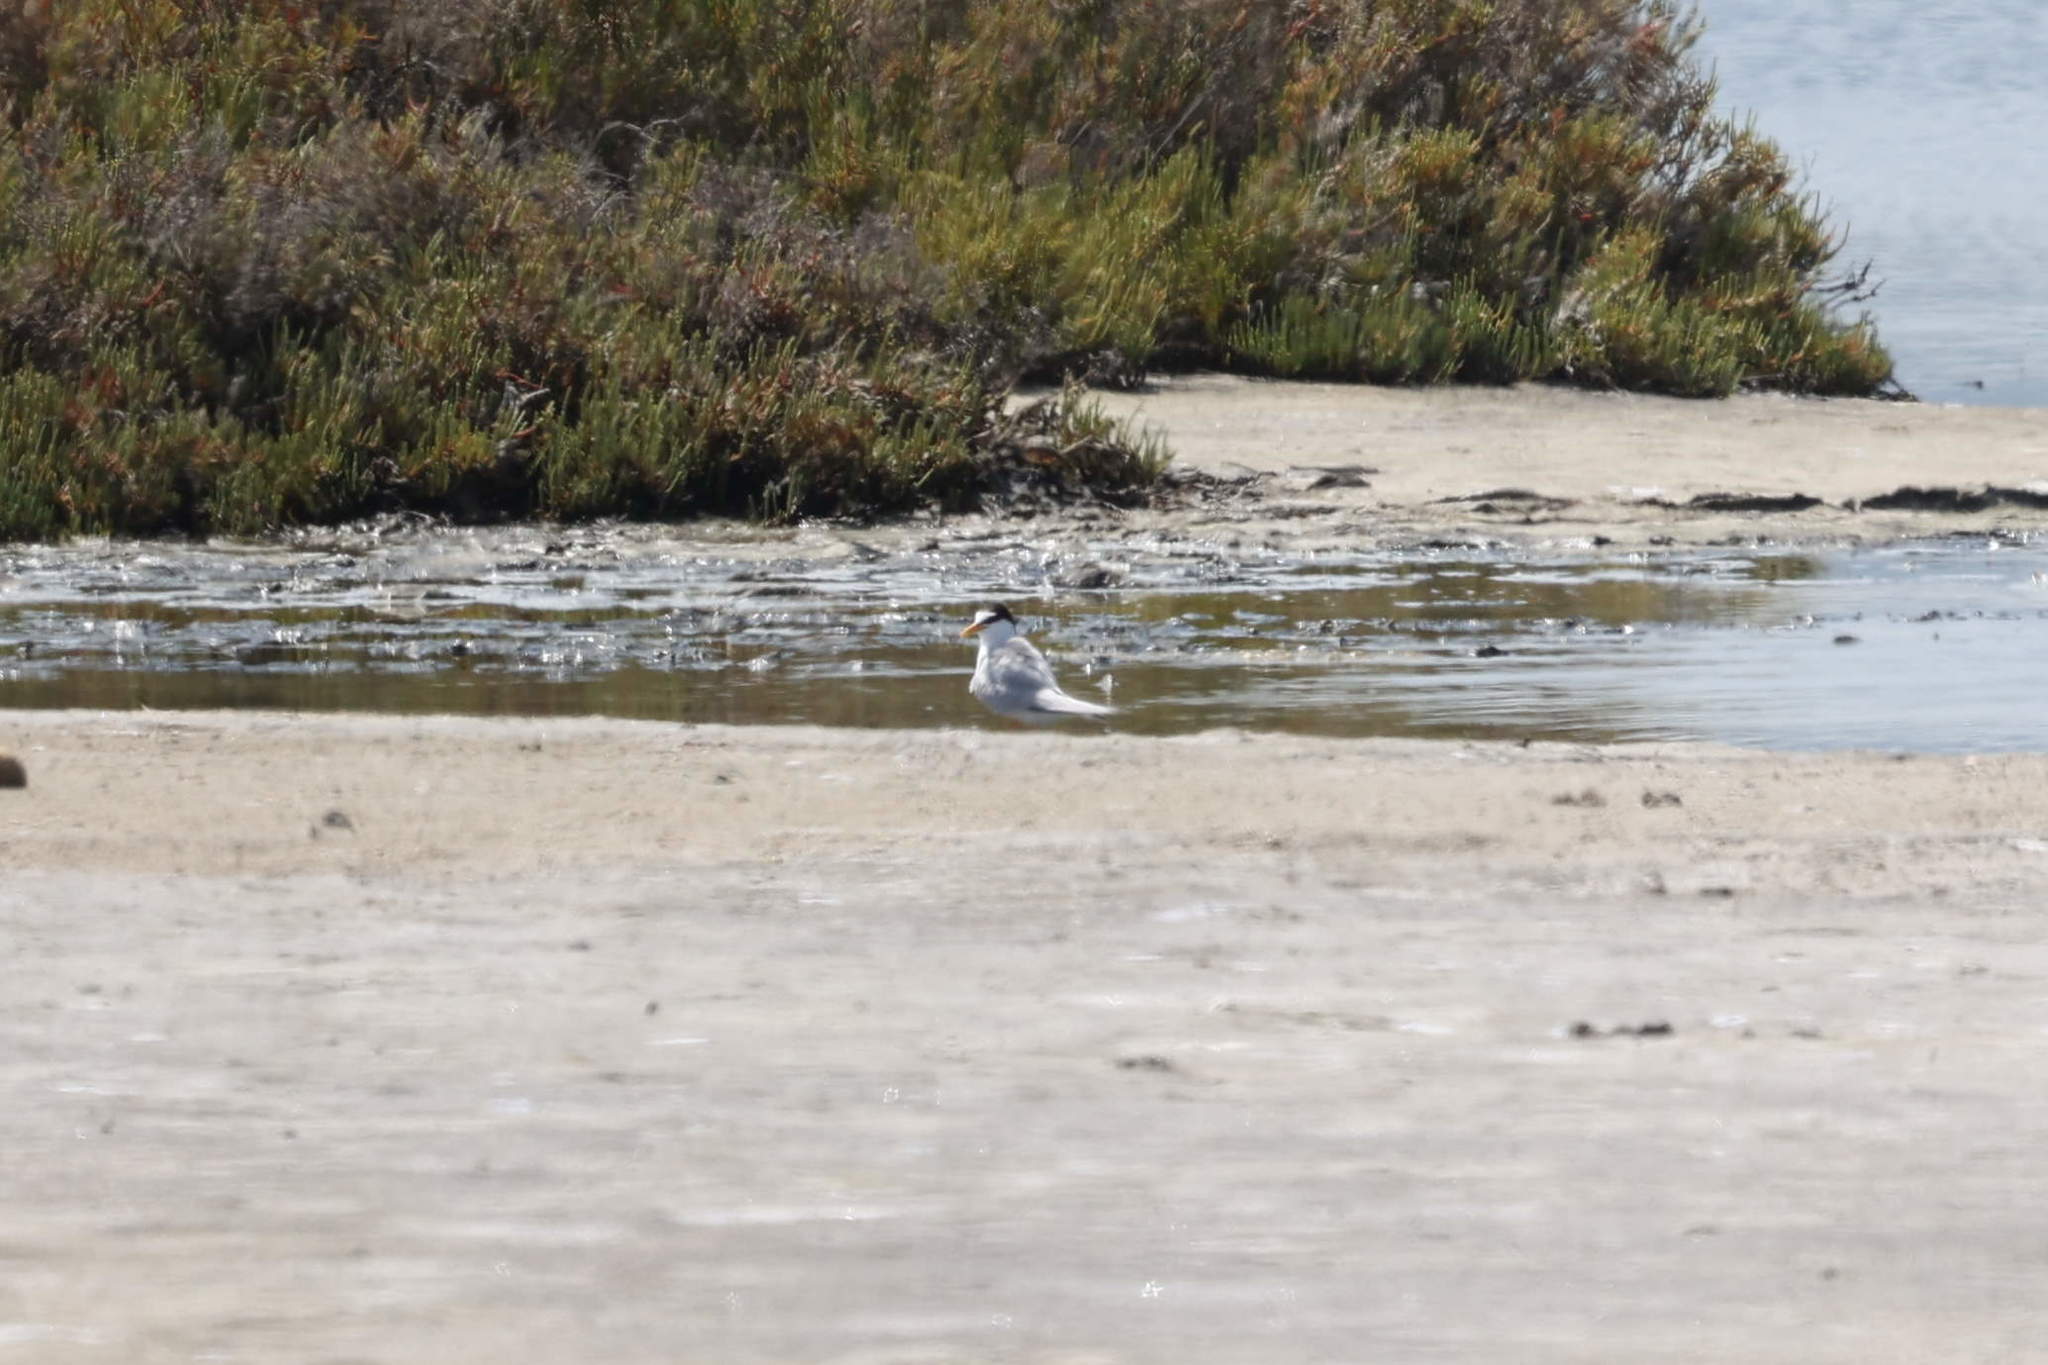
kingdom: Animalia
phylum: Chordata
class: Aves
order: Charadriiformes
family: Laridae
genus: Sternula
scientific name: Sternula albifrons
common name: Little tern
